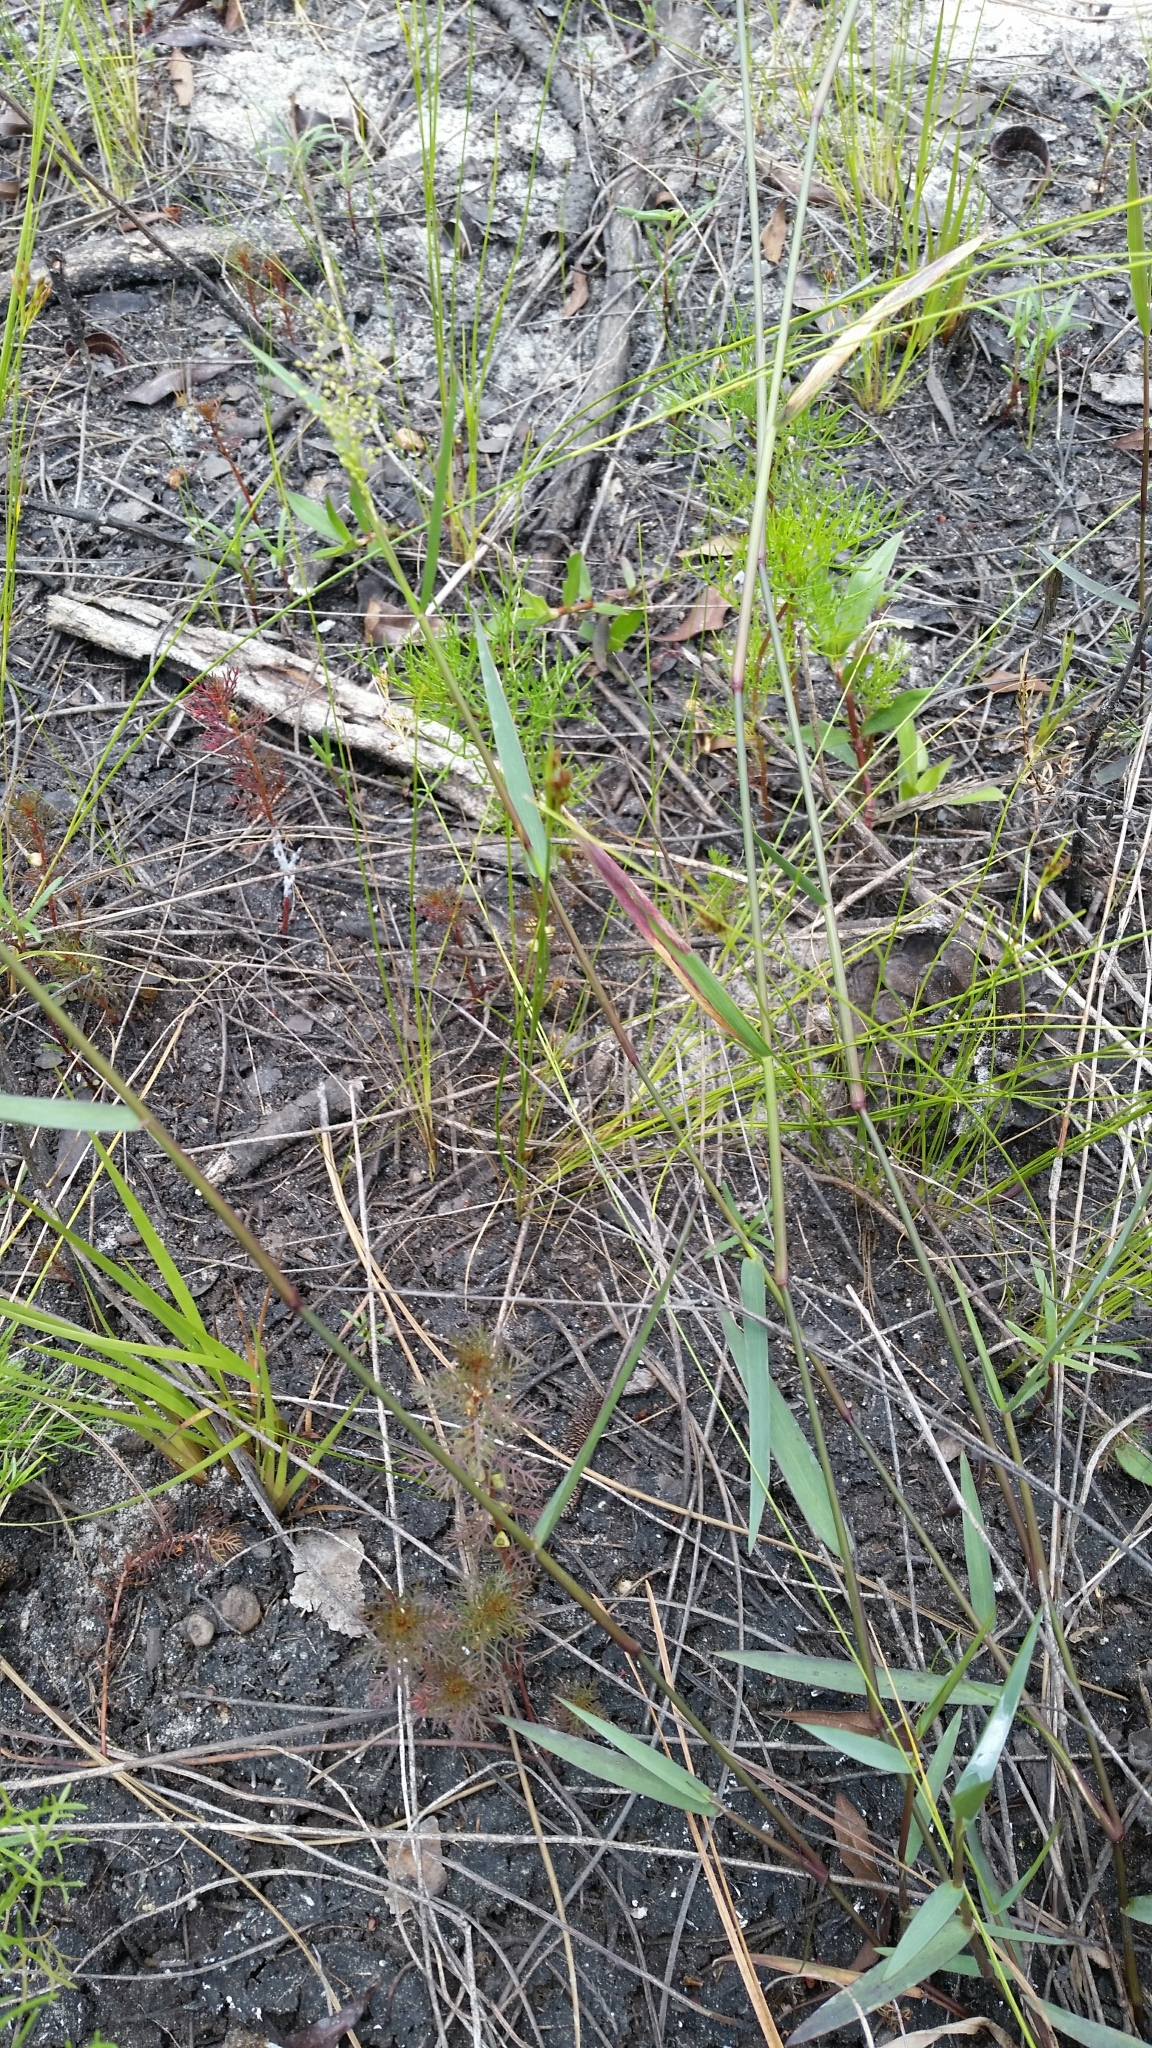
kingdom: Plantae
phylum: Tracheophyta
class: Liliopsida
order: Poales
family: Poaceae
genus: Dichanthelium
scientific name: Dichanthelium caerulescens
